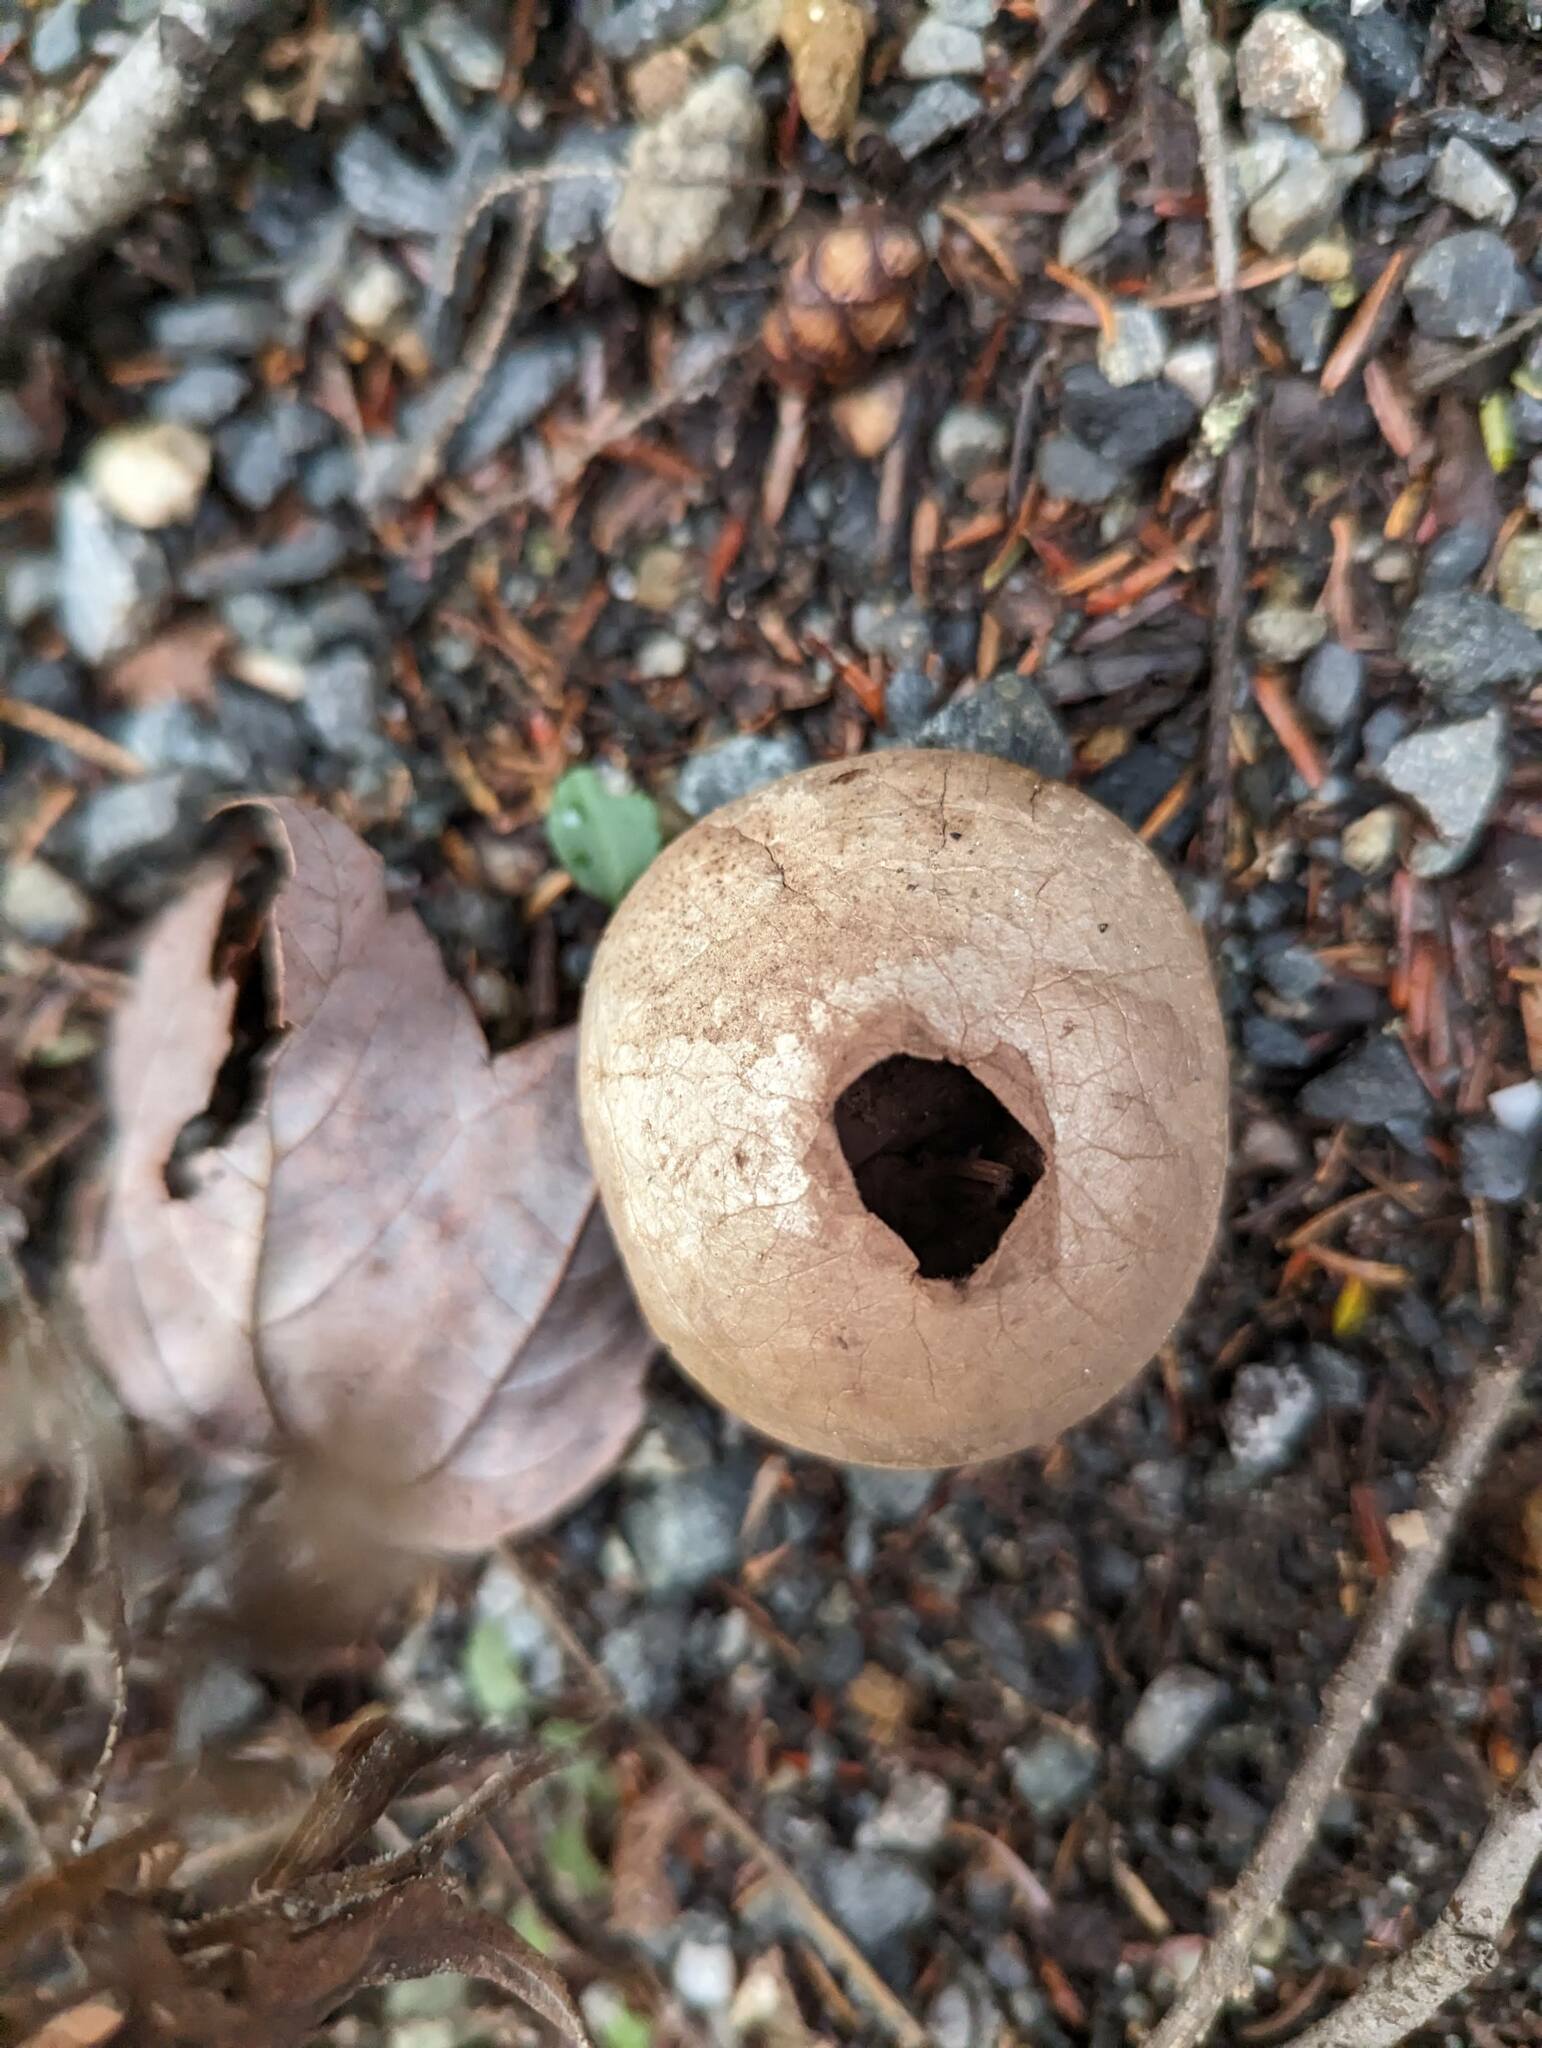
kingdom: Fungi
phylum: Basidiomycota
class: Agaricomycetes
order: Agaricales
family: Lycoperdaceae
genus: Apioperdon
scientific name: Apioperdon pyriforme
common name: Pear-shaped puffball
